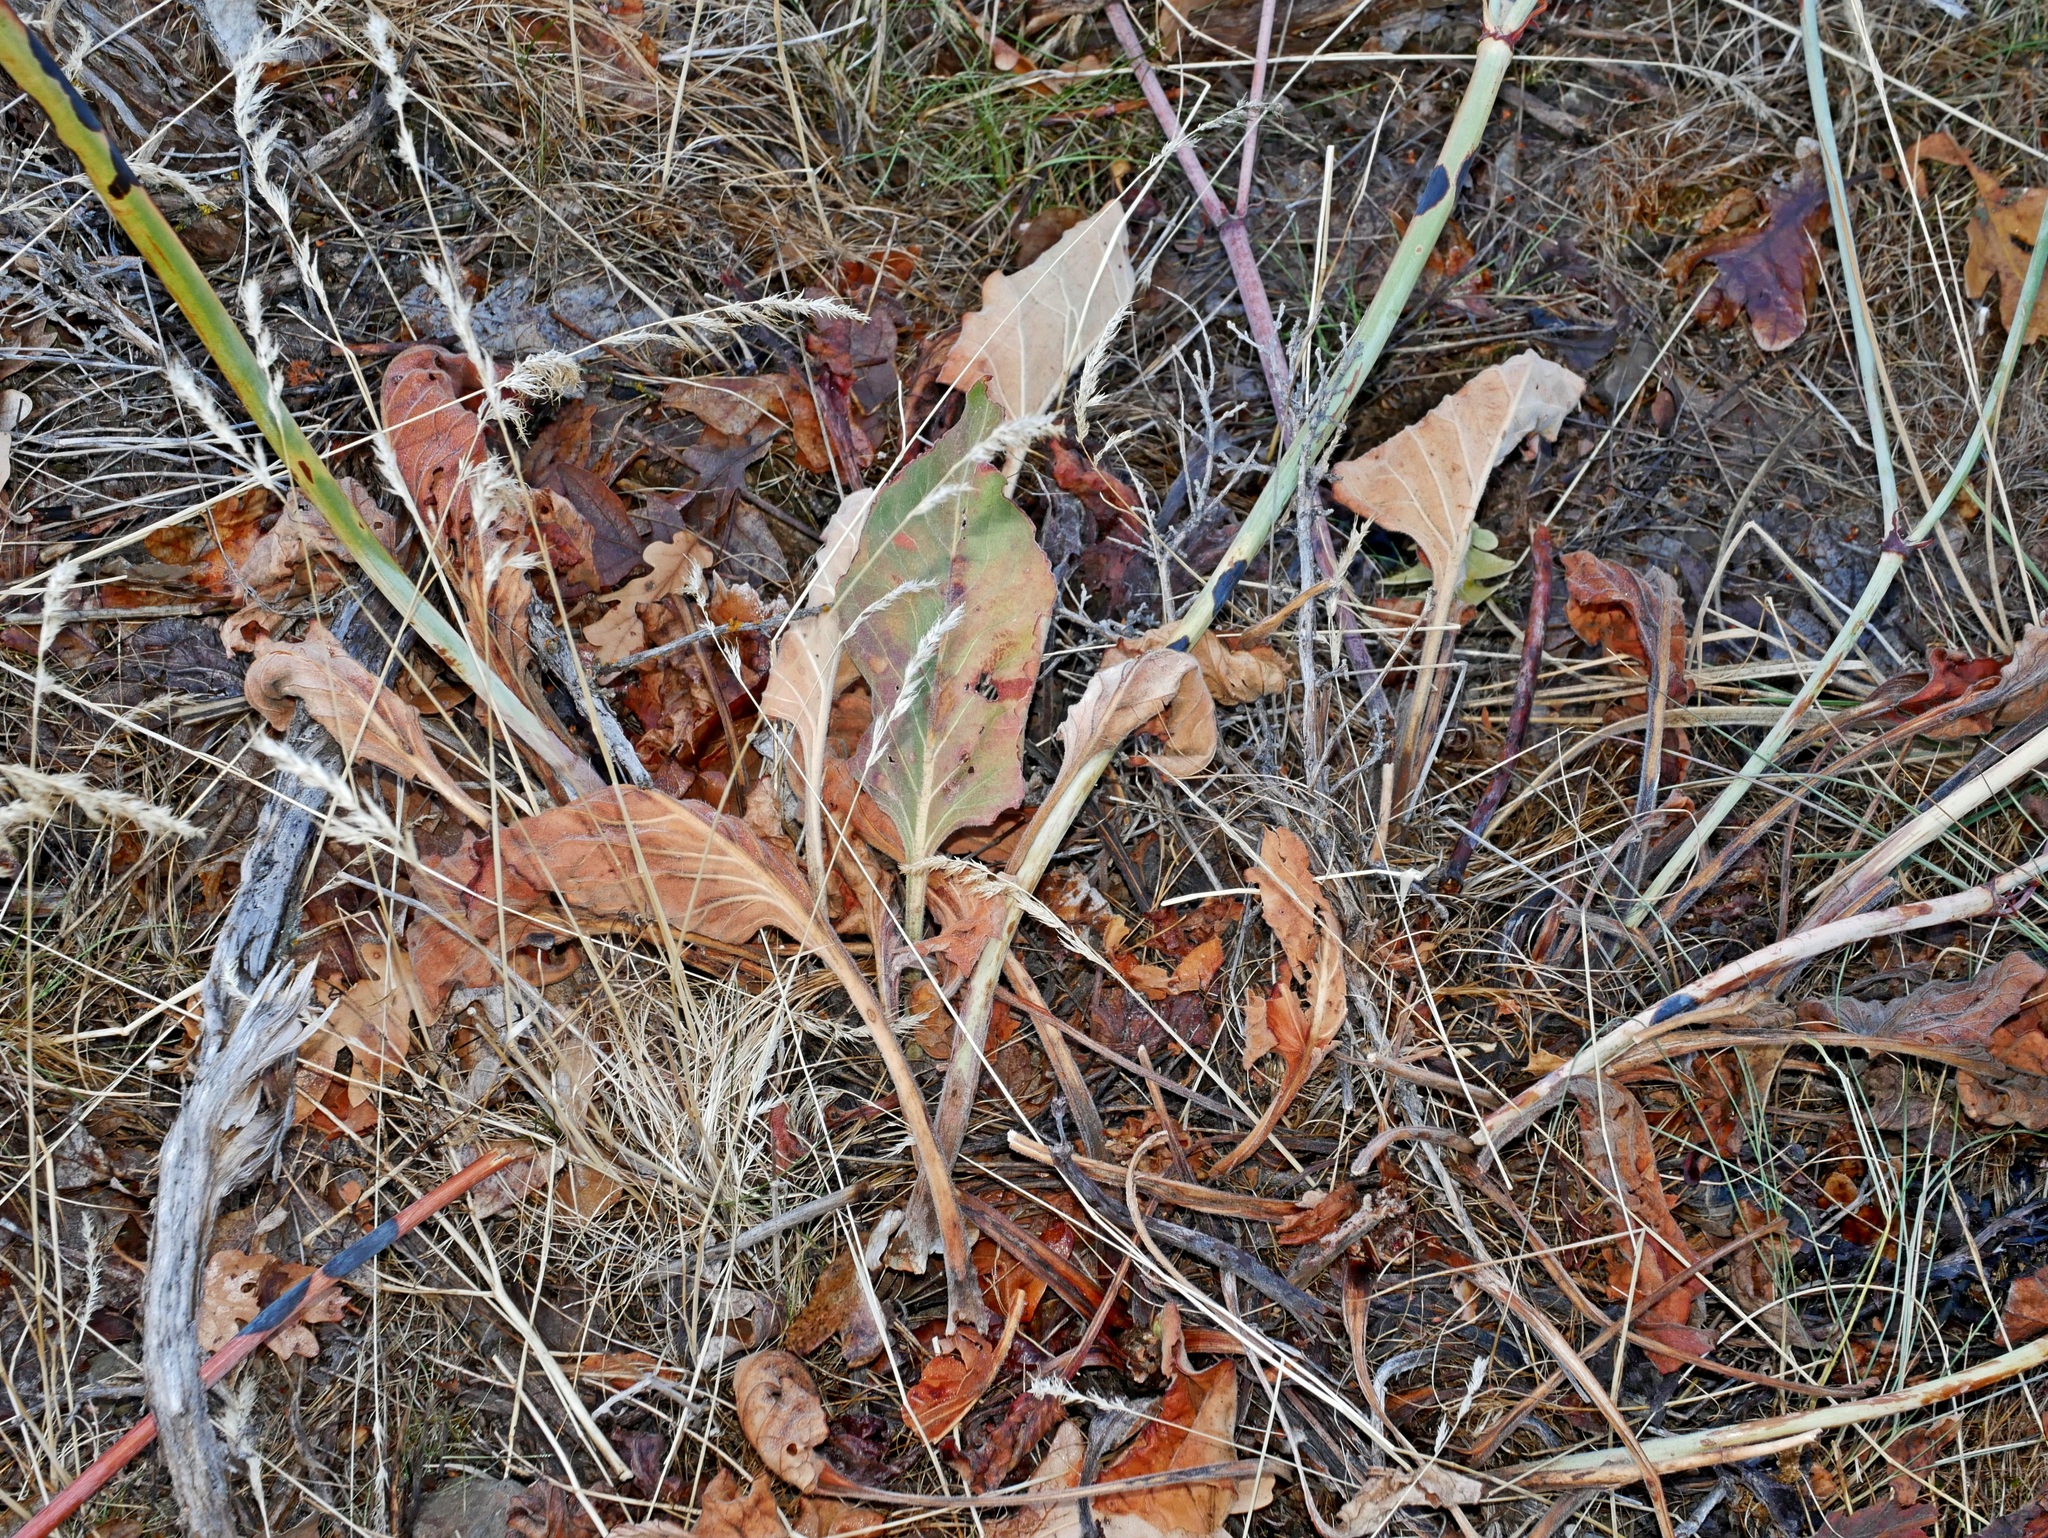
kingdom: Plantae
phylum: Tracheophyta
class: Magnoliopsida
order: Caryophyllales
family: Polygonaceae
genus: Eriogonum
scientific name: Eriogonum elatum
